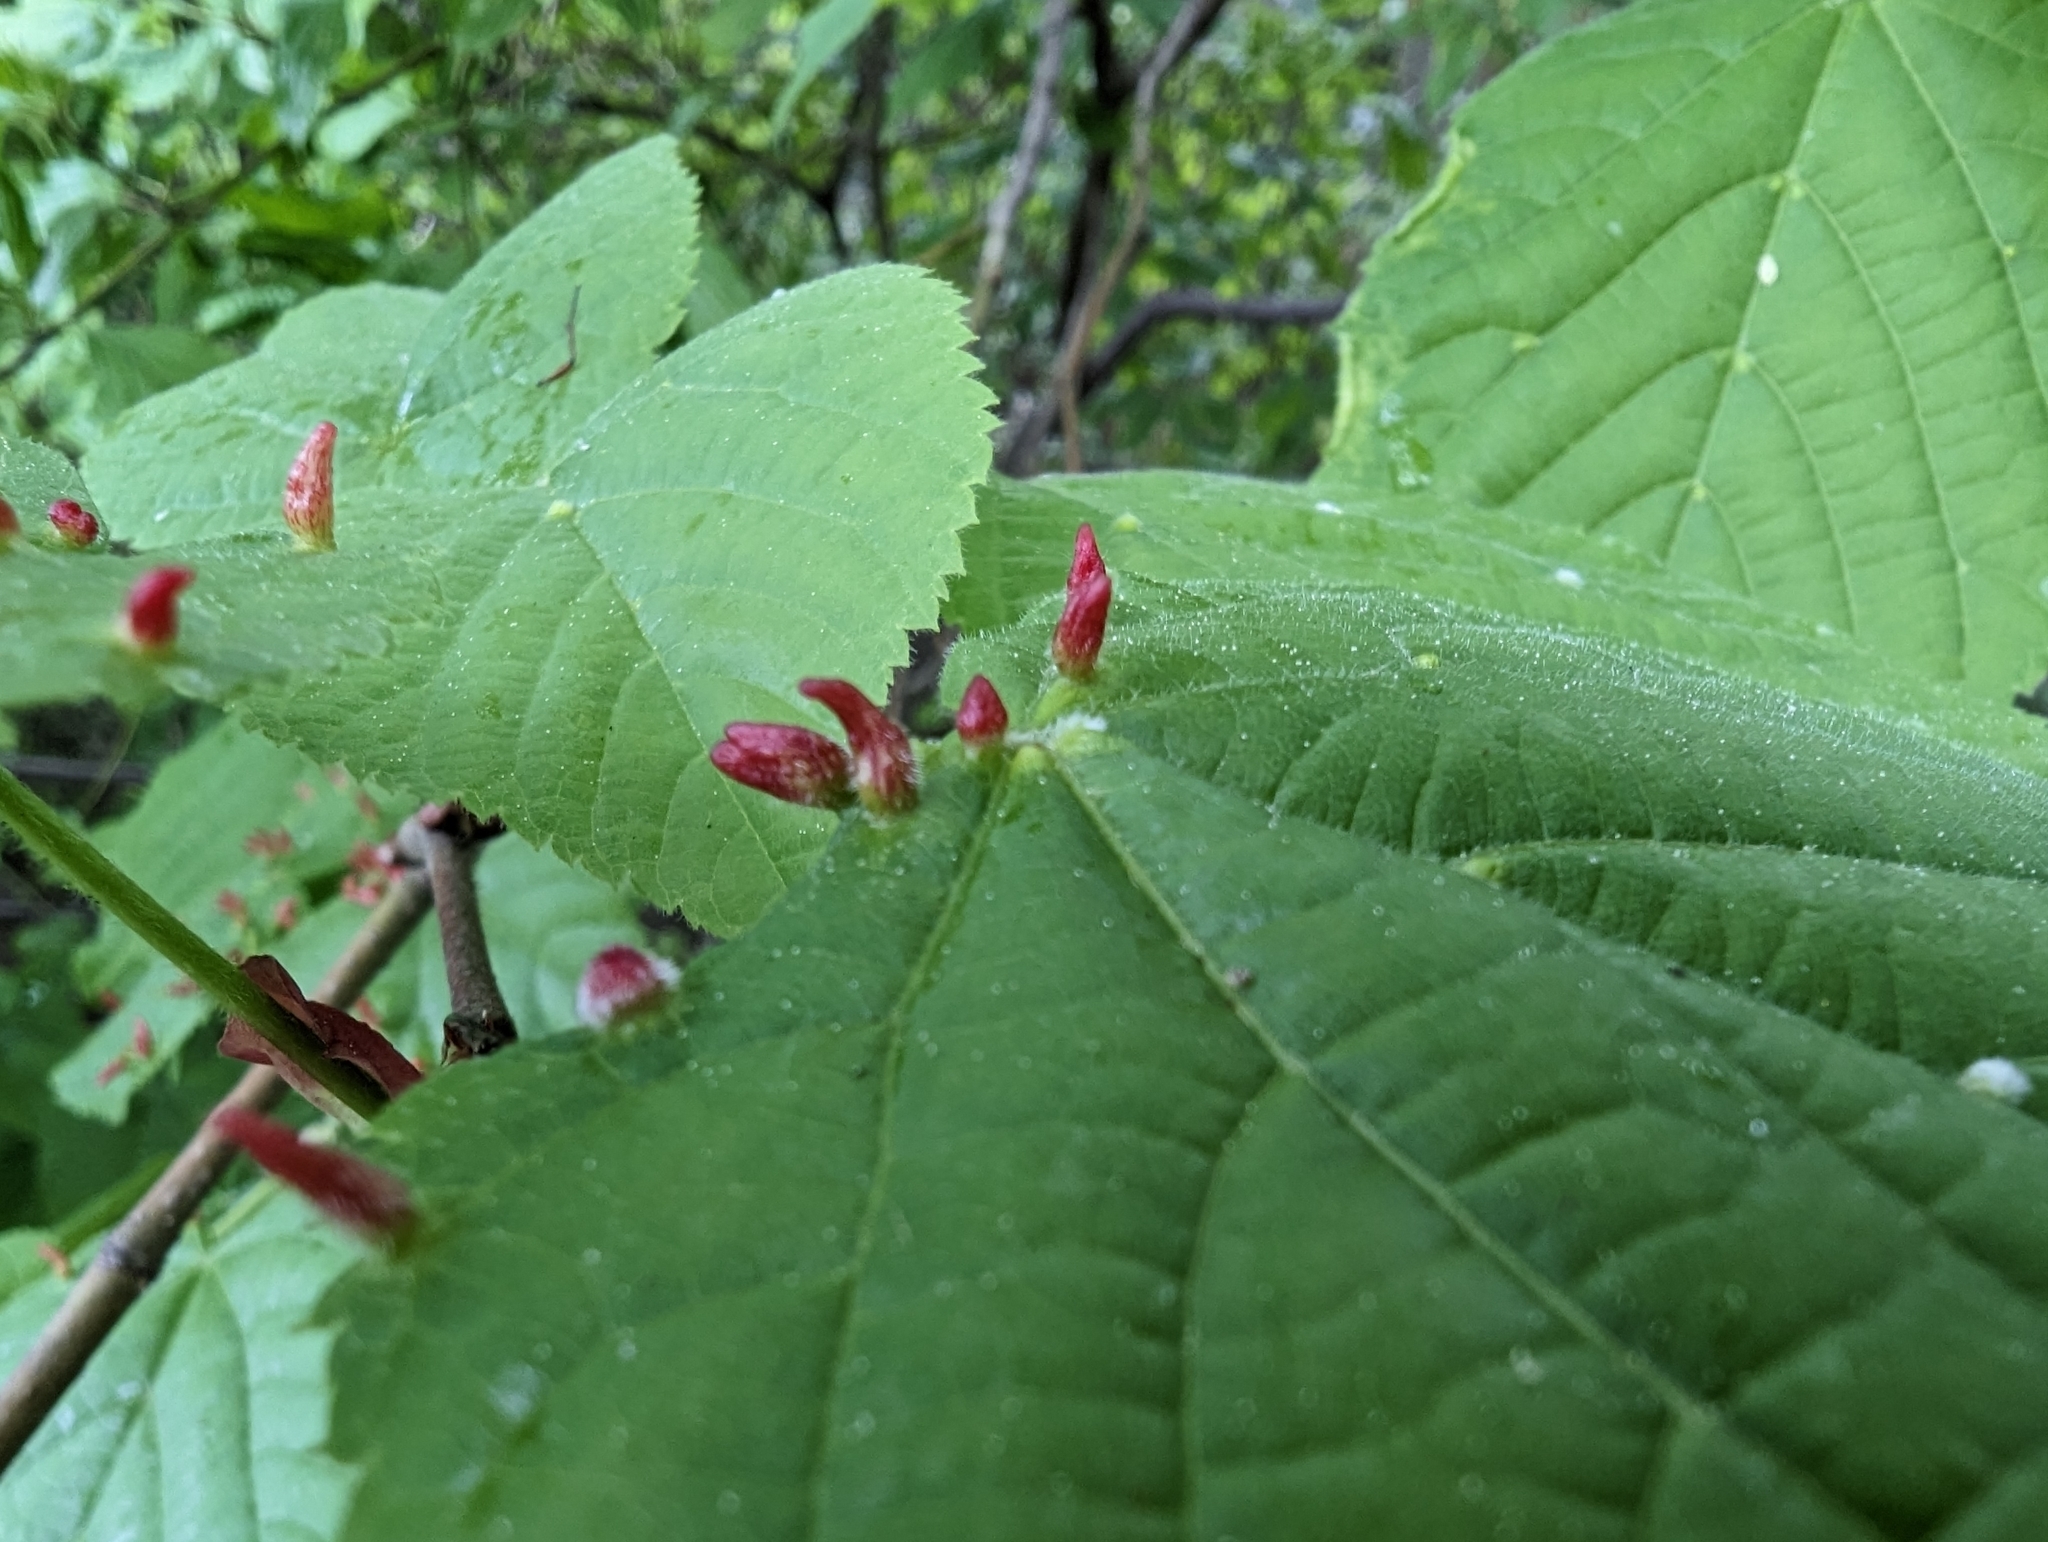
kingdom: Animalia
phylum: Arthropoda
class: Arachnida
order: Trombidiformes
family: Eriophyidae
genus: Eriophyes
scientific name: Eriophyes tiliae
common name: Red nail gall mite
